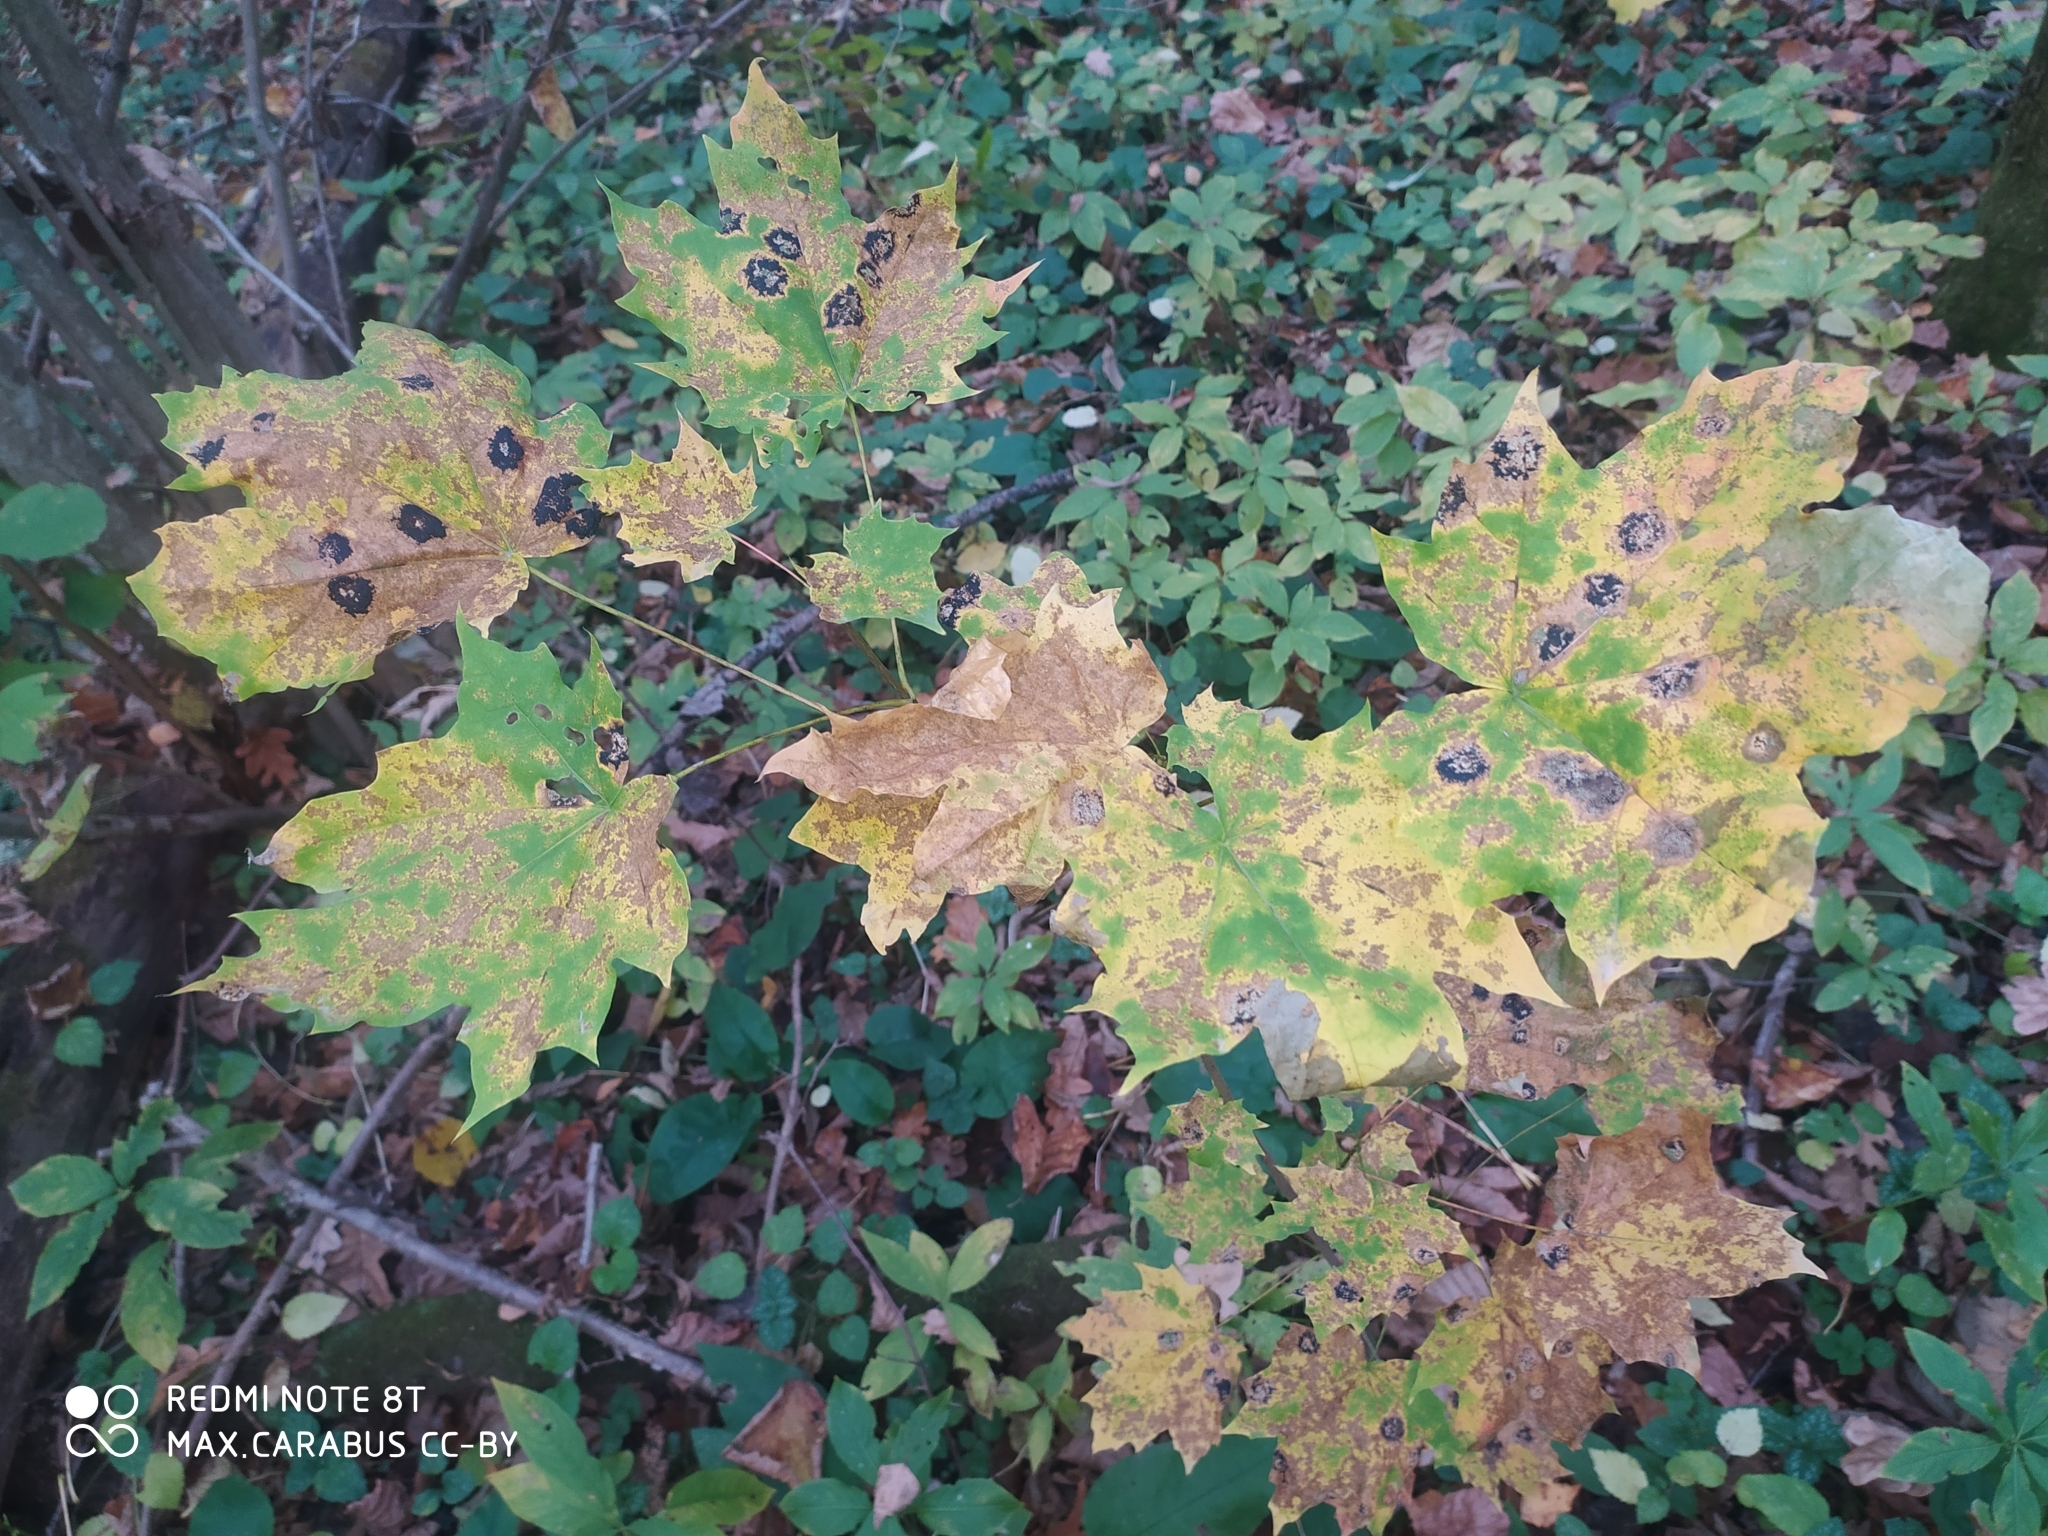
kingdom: Plantae
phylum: Tracheophyta
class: Magnoliopsida
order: Sapindales
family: Sapindaceae
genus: Acer
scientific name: Acer platanoides
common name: Norway maple
